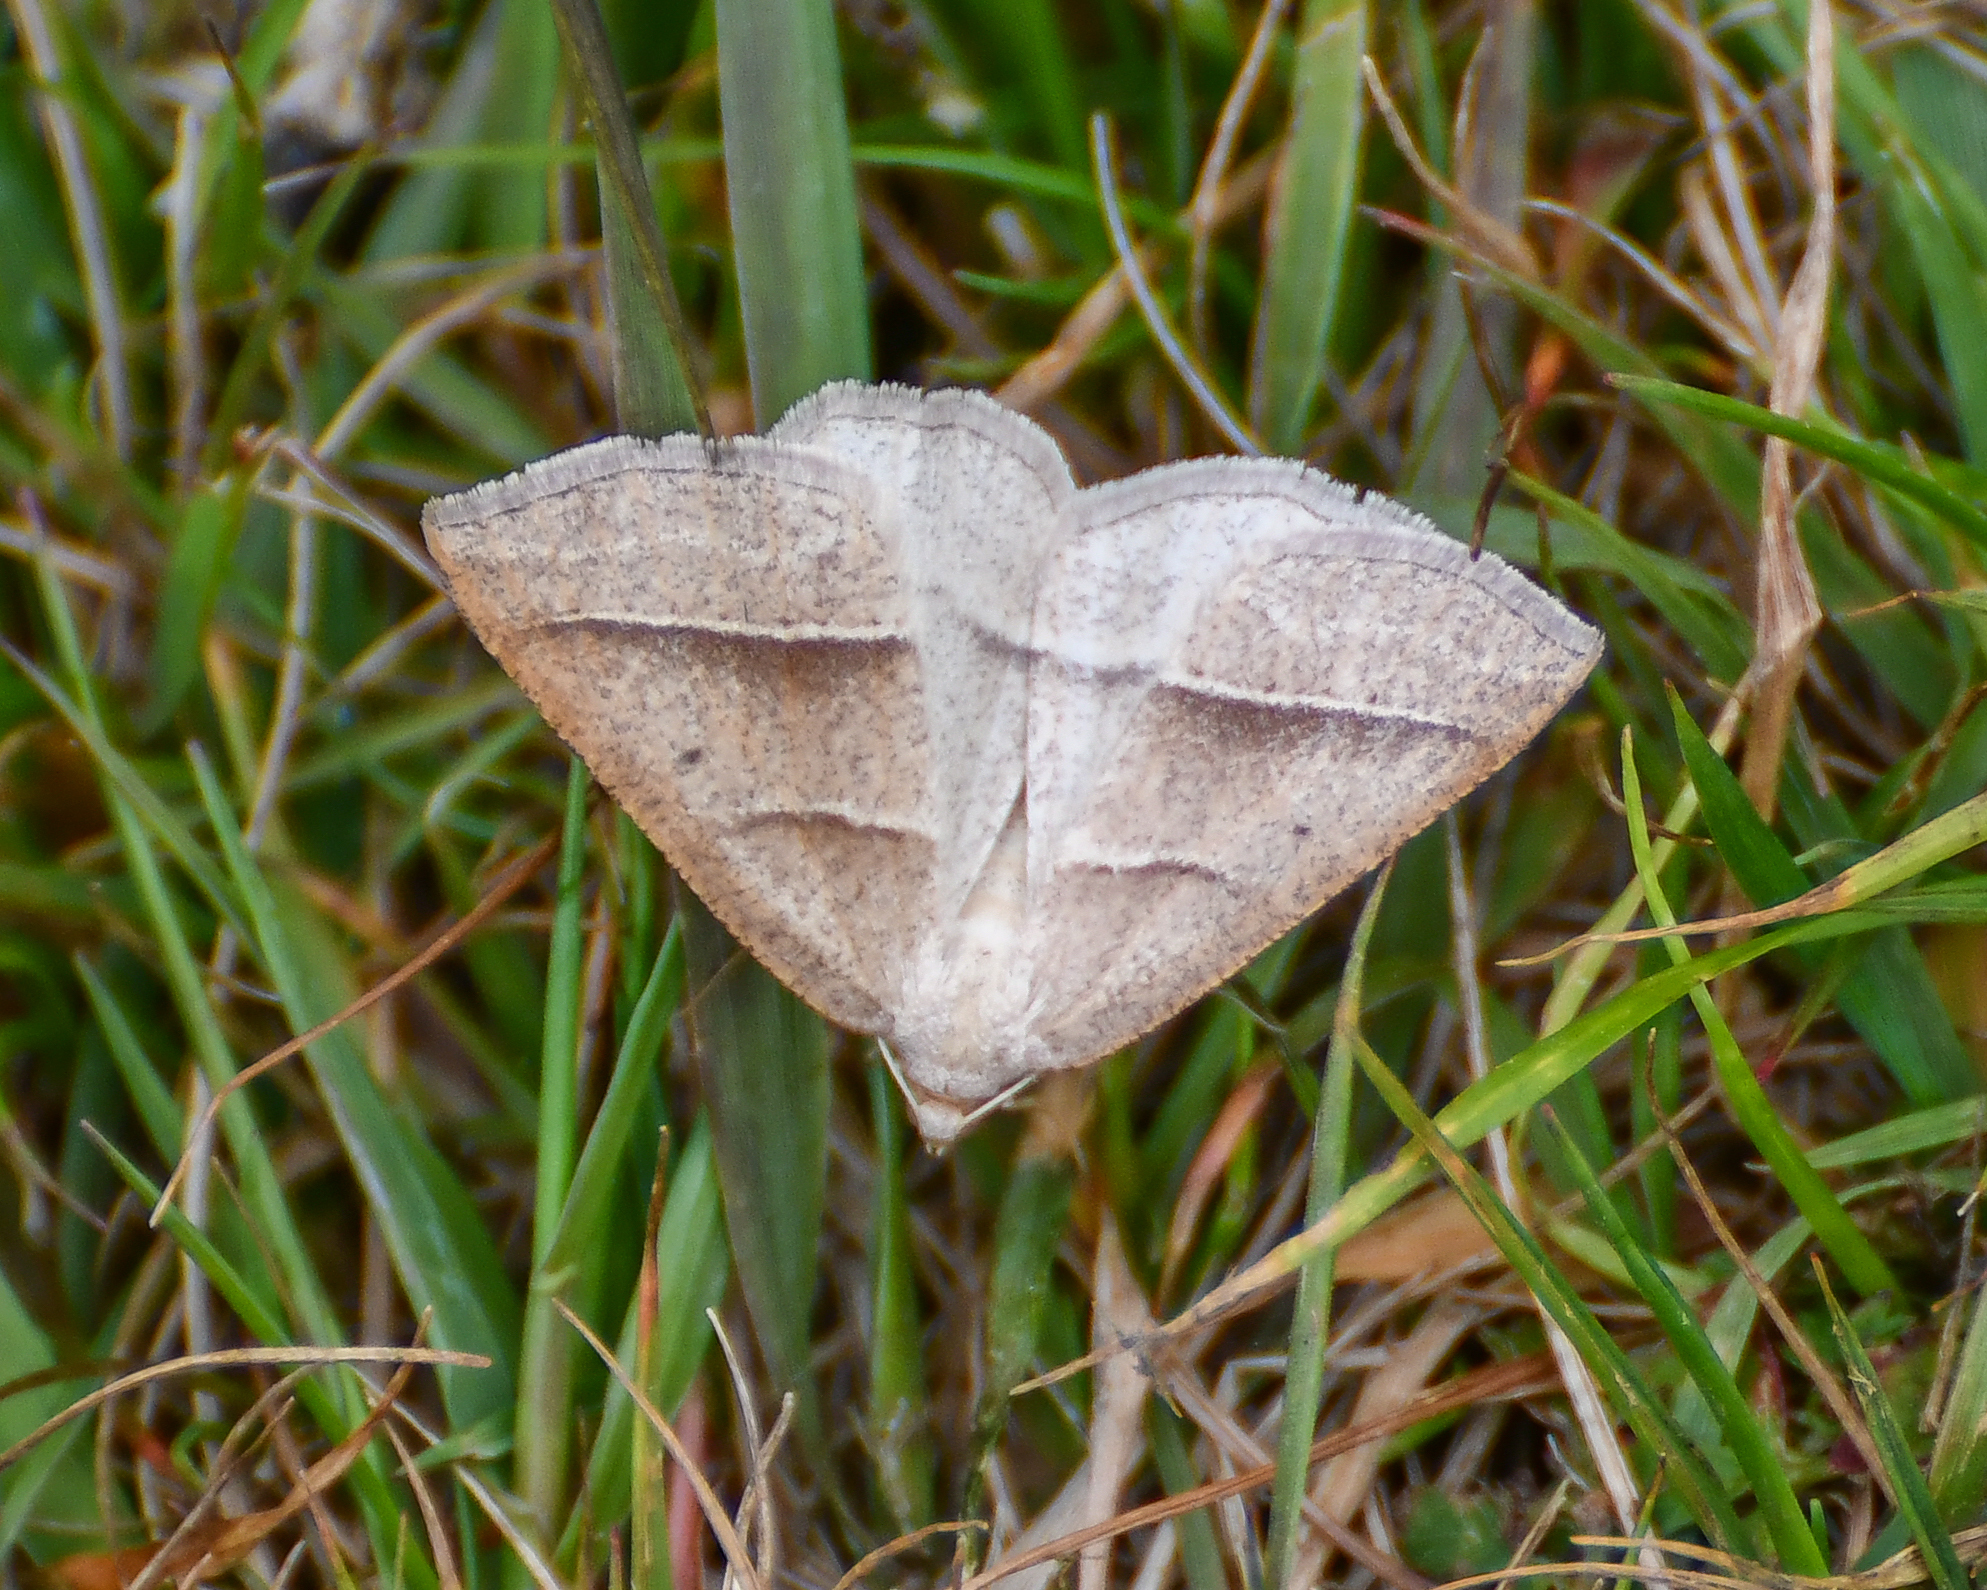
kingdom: Animalia
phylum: Arthropoda
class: Insecta
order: Lepidoptera
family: Pterophoridae
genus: Pterophorus
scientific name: Pterophorus Petrophora chlorosata
